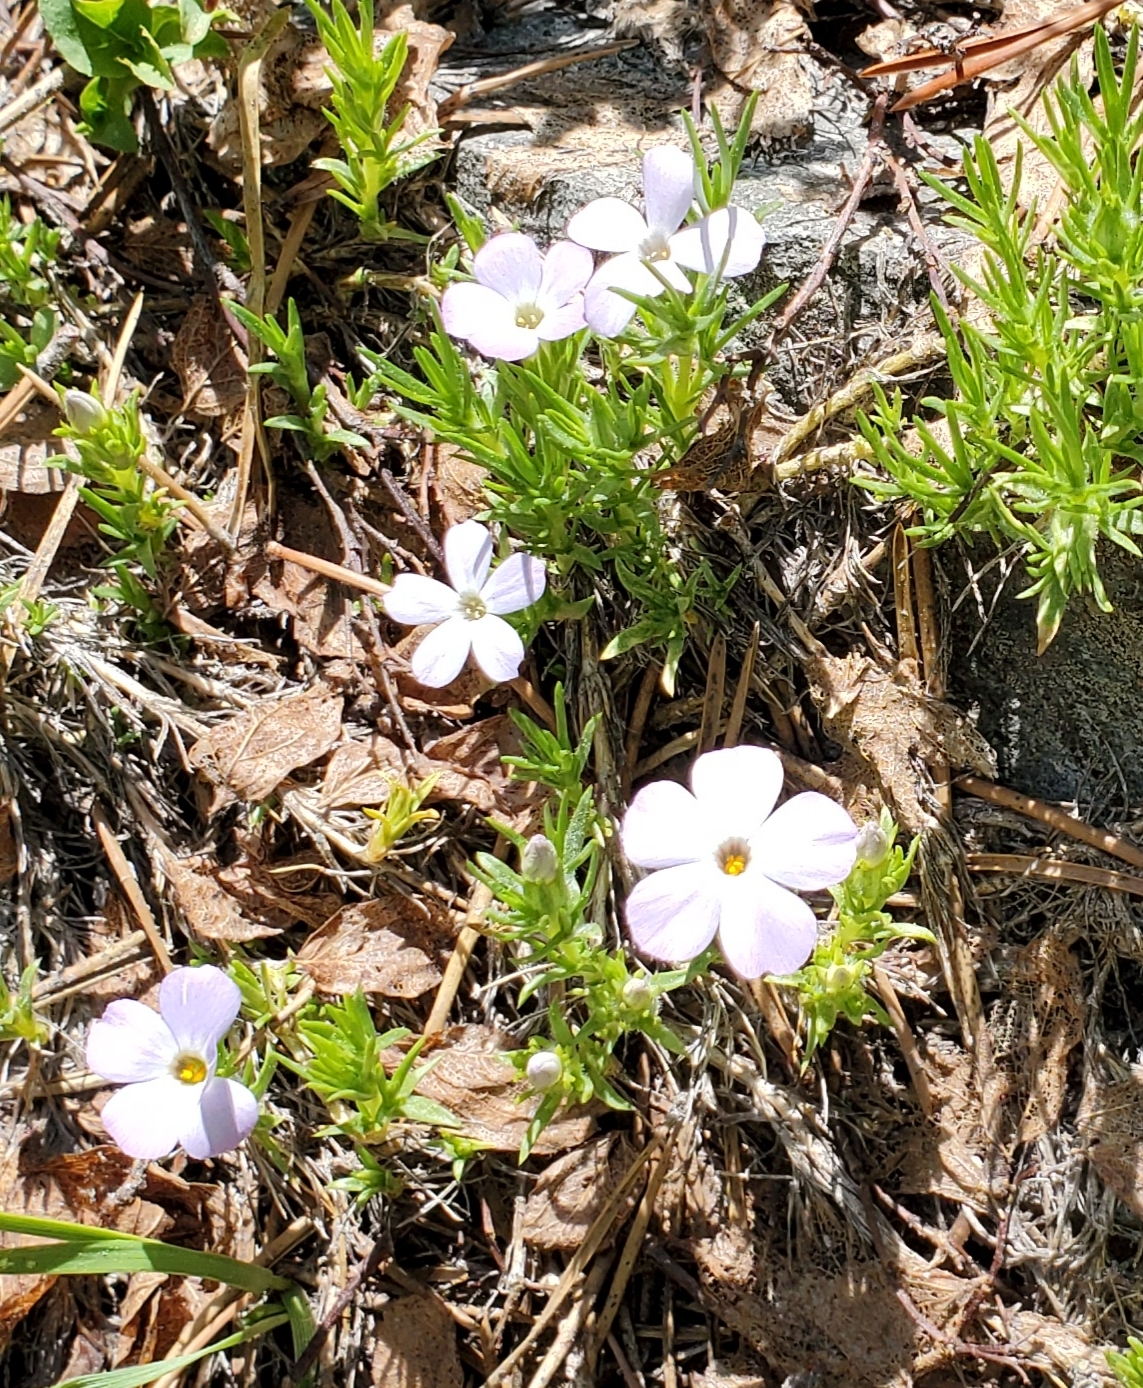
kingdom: Plantae
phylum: Tracheophyta
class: Magnoliopsida
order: Ericales
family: Polemoniaceae
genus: Phlox
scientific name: Phlox diffusa
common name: Mat phlox
